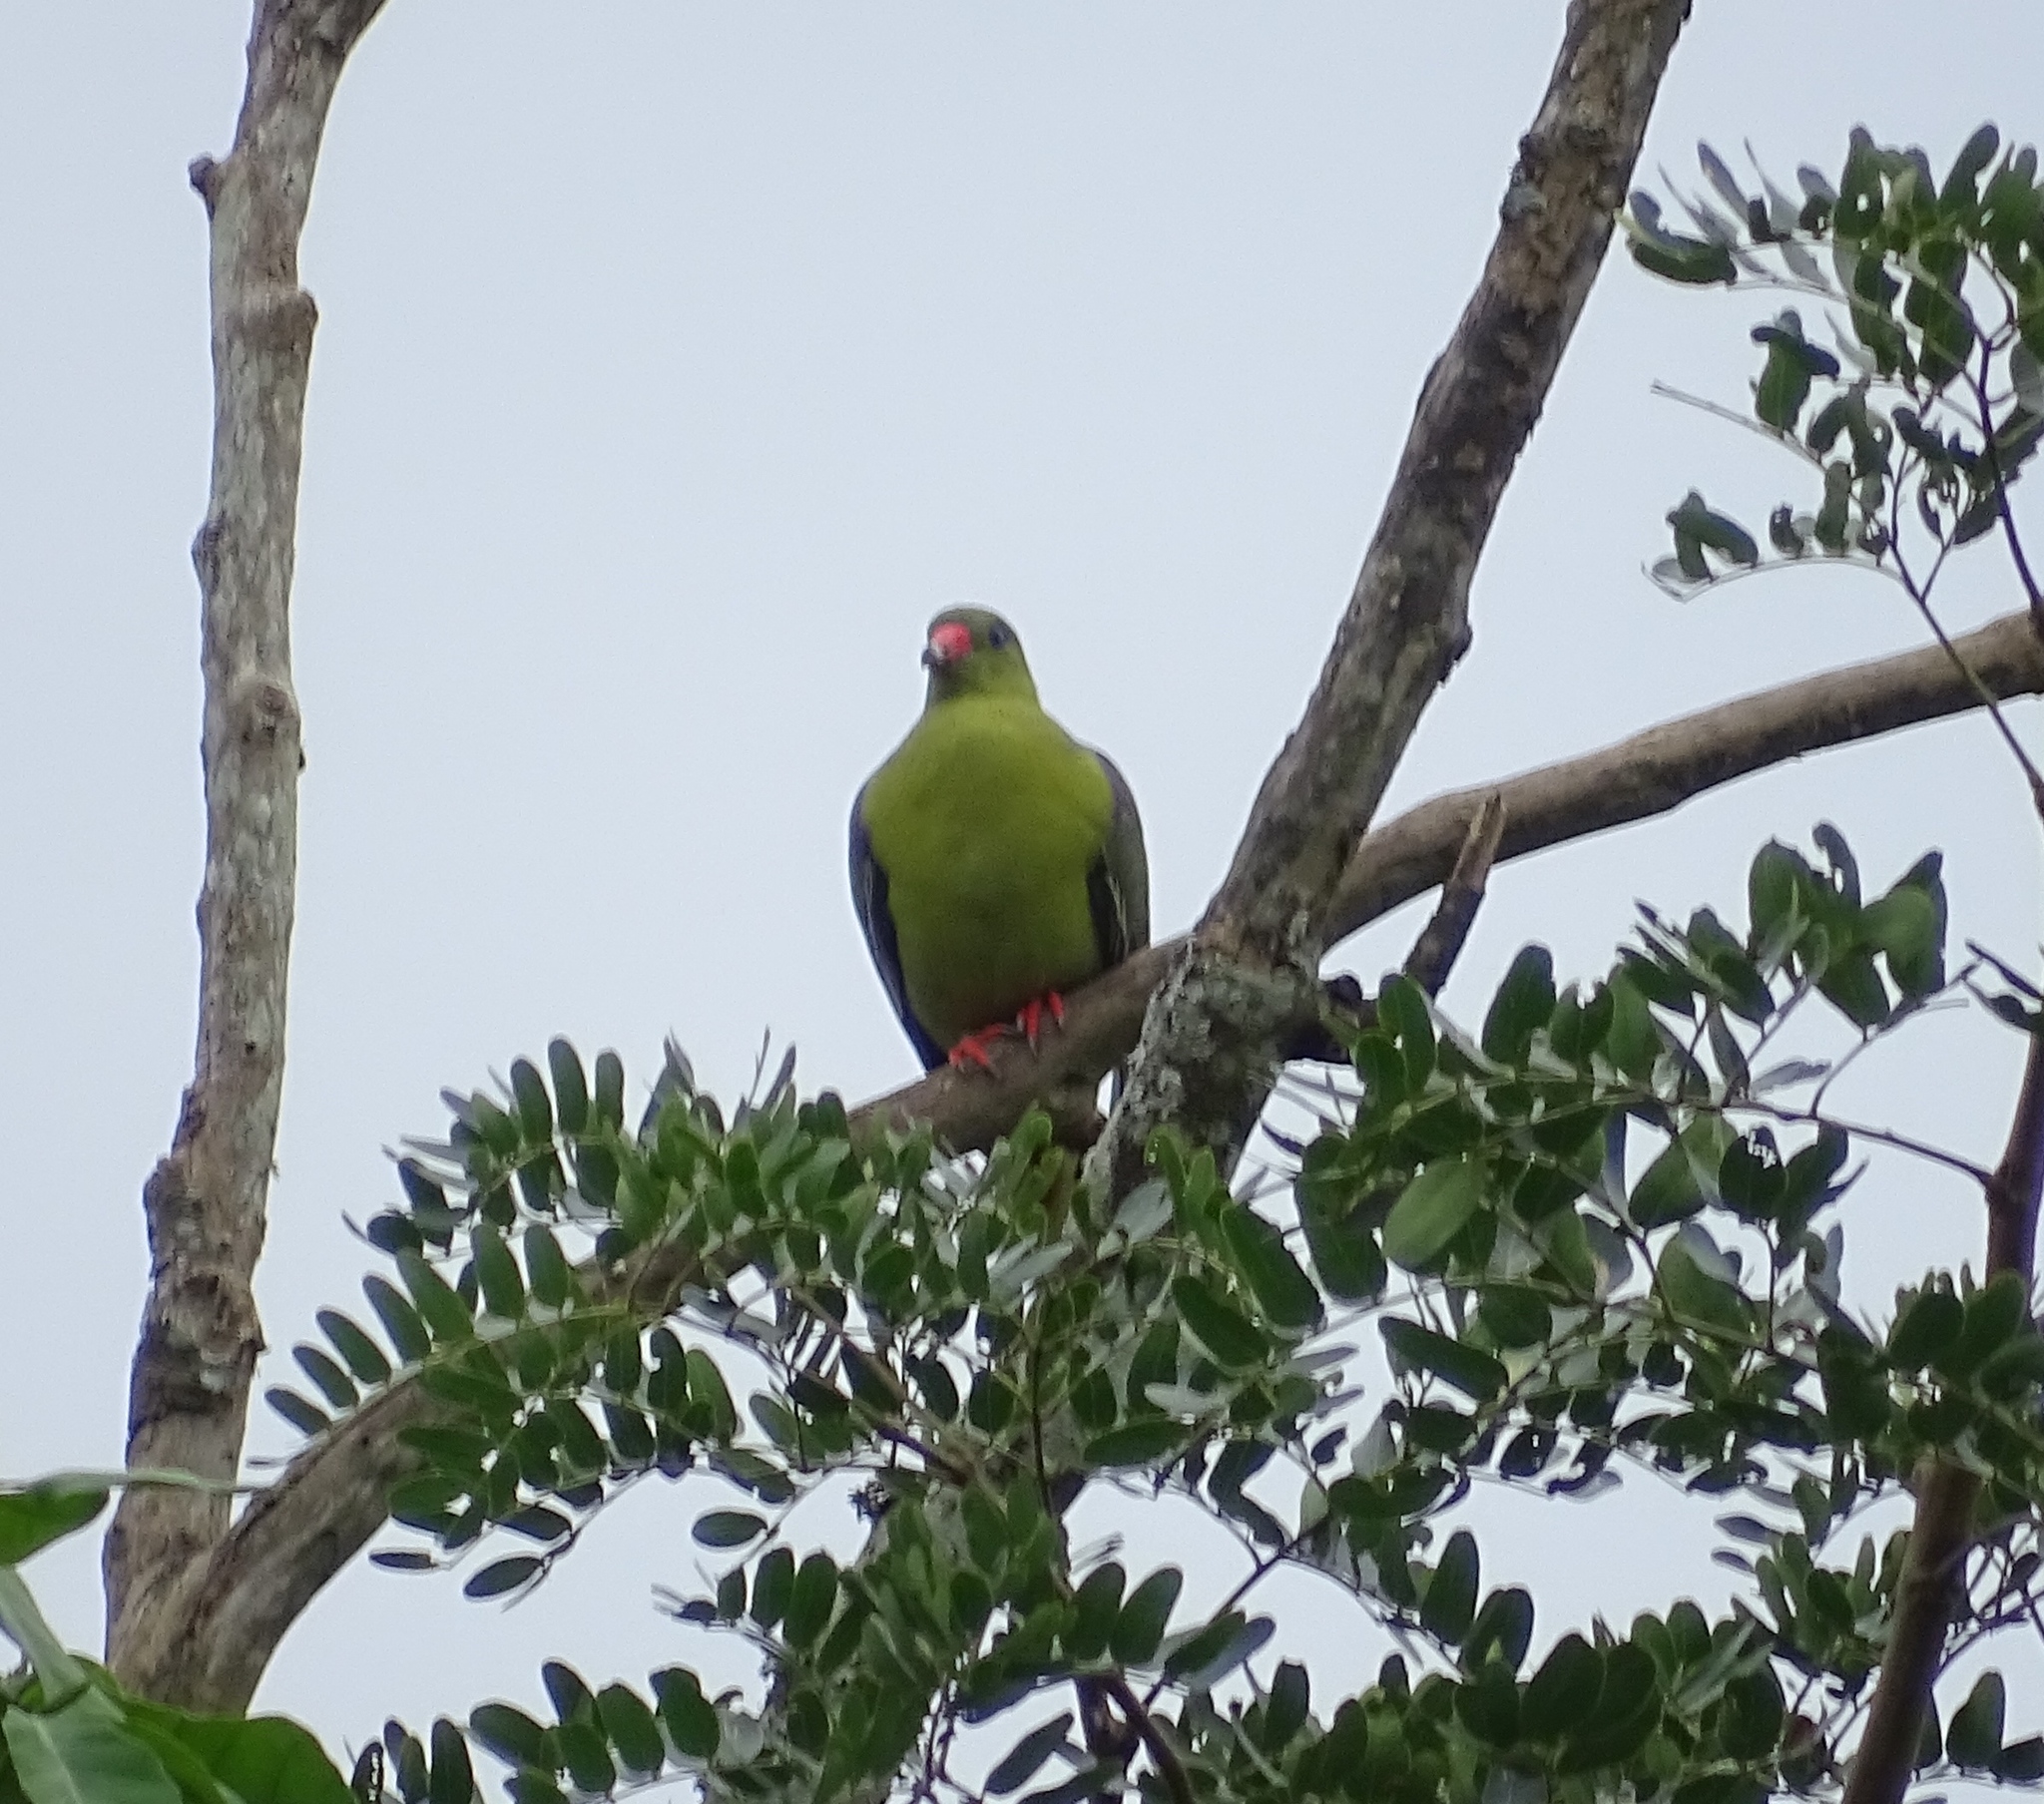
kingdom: Animalia
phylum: Chordata
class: Aves
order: Columbiformes
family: Columbidae
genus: Treron
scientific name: Treron calvus
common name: African green pigeon
